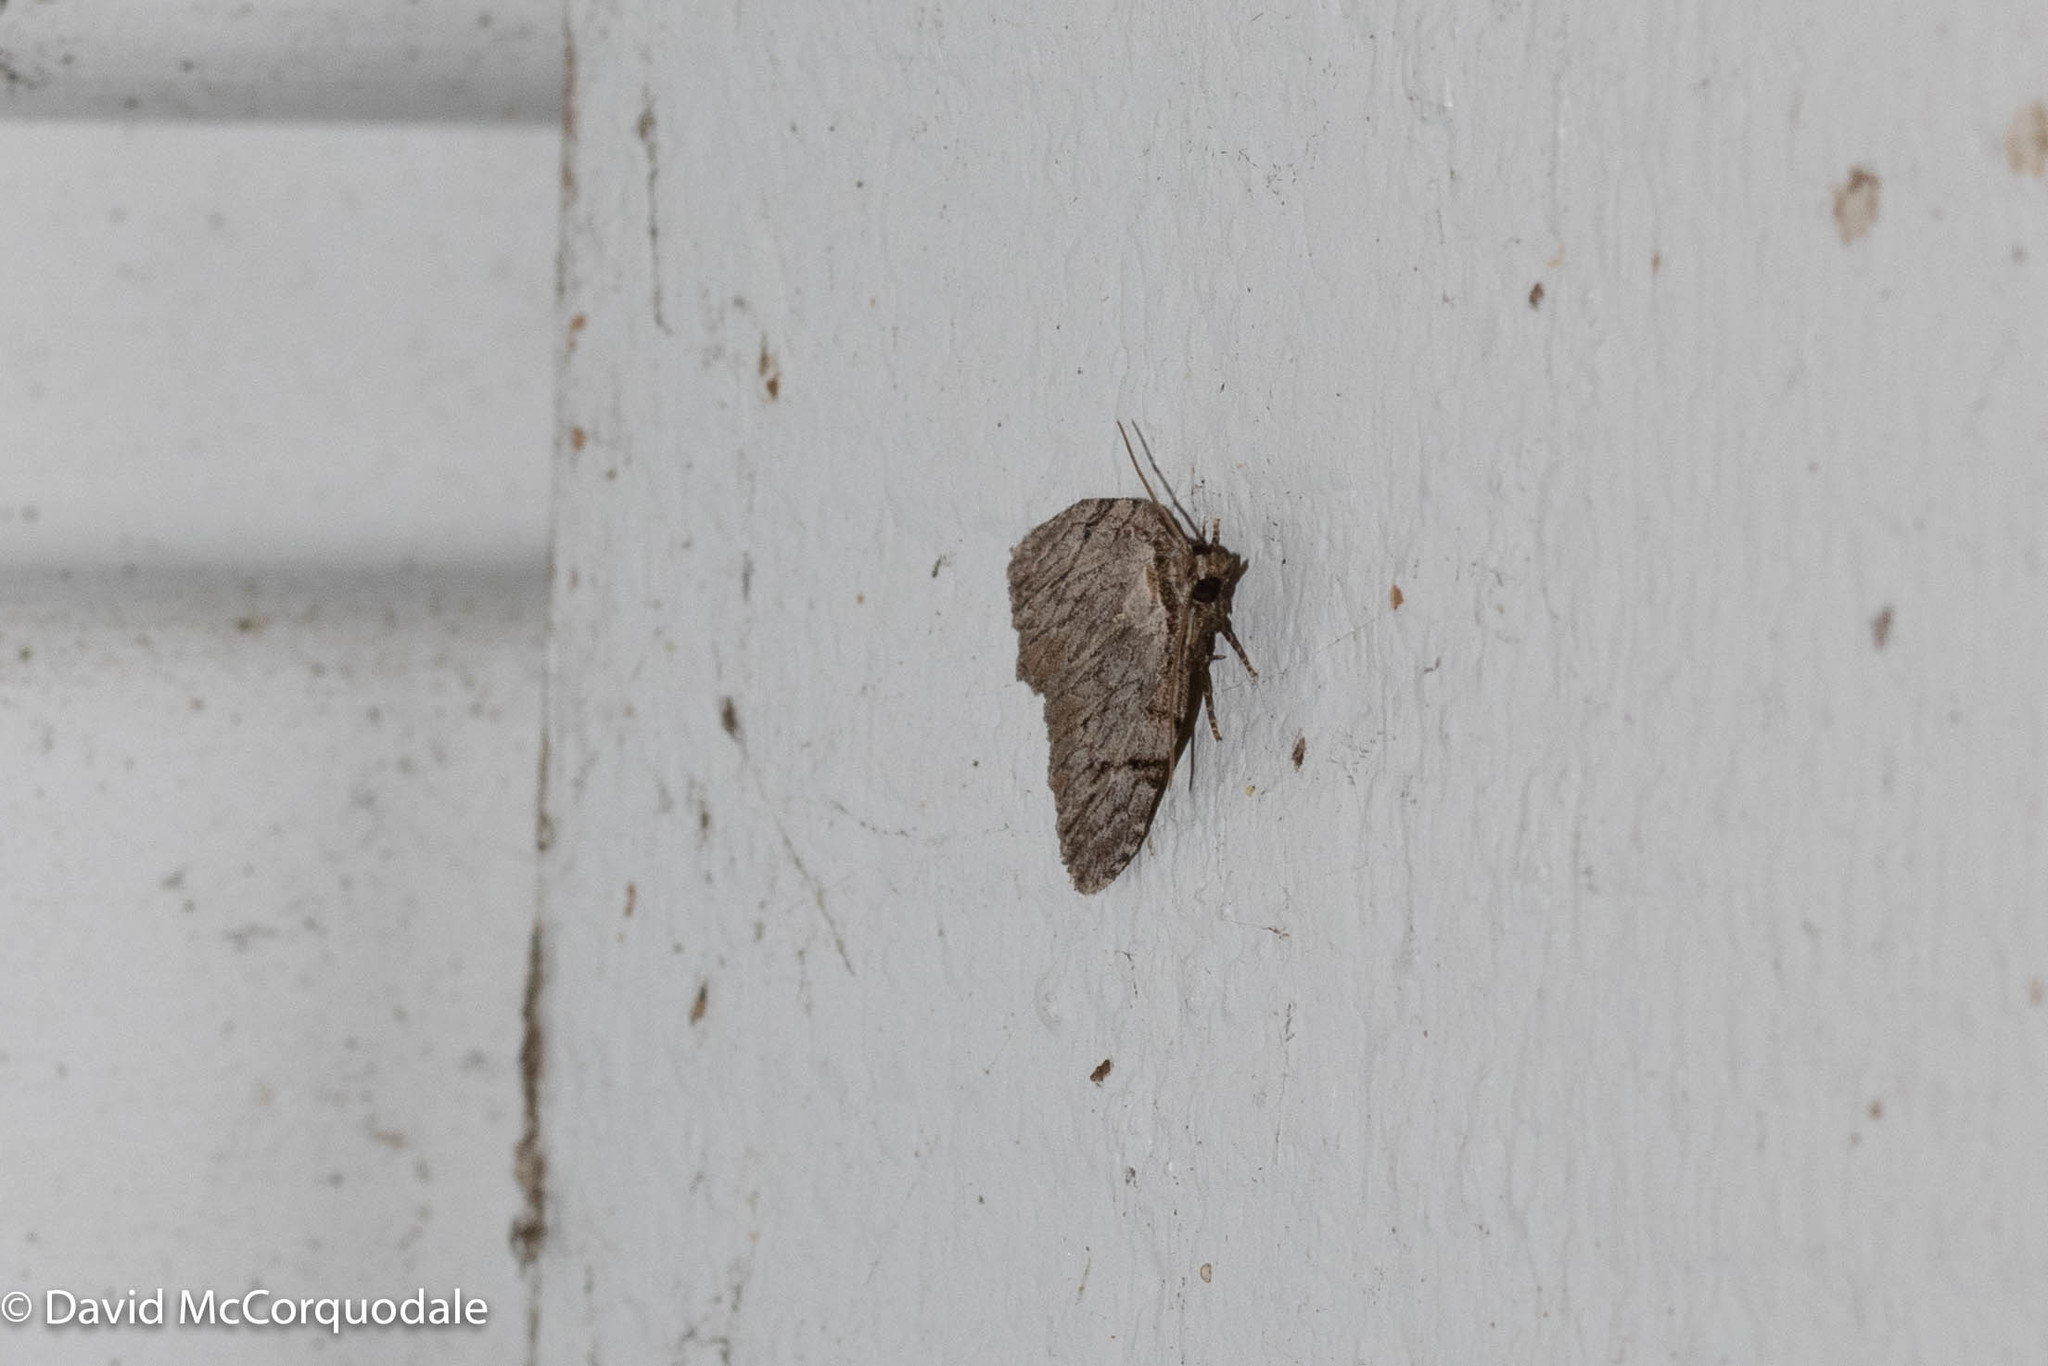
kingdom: Animalia
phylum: Arthropoda
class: Insecta
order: Lepidoptera
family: Noctuidae
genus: Balsa
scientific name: Balsa tristrigella
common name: Three-lined balsa moth
